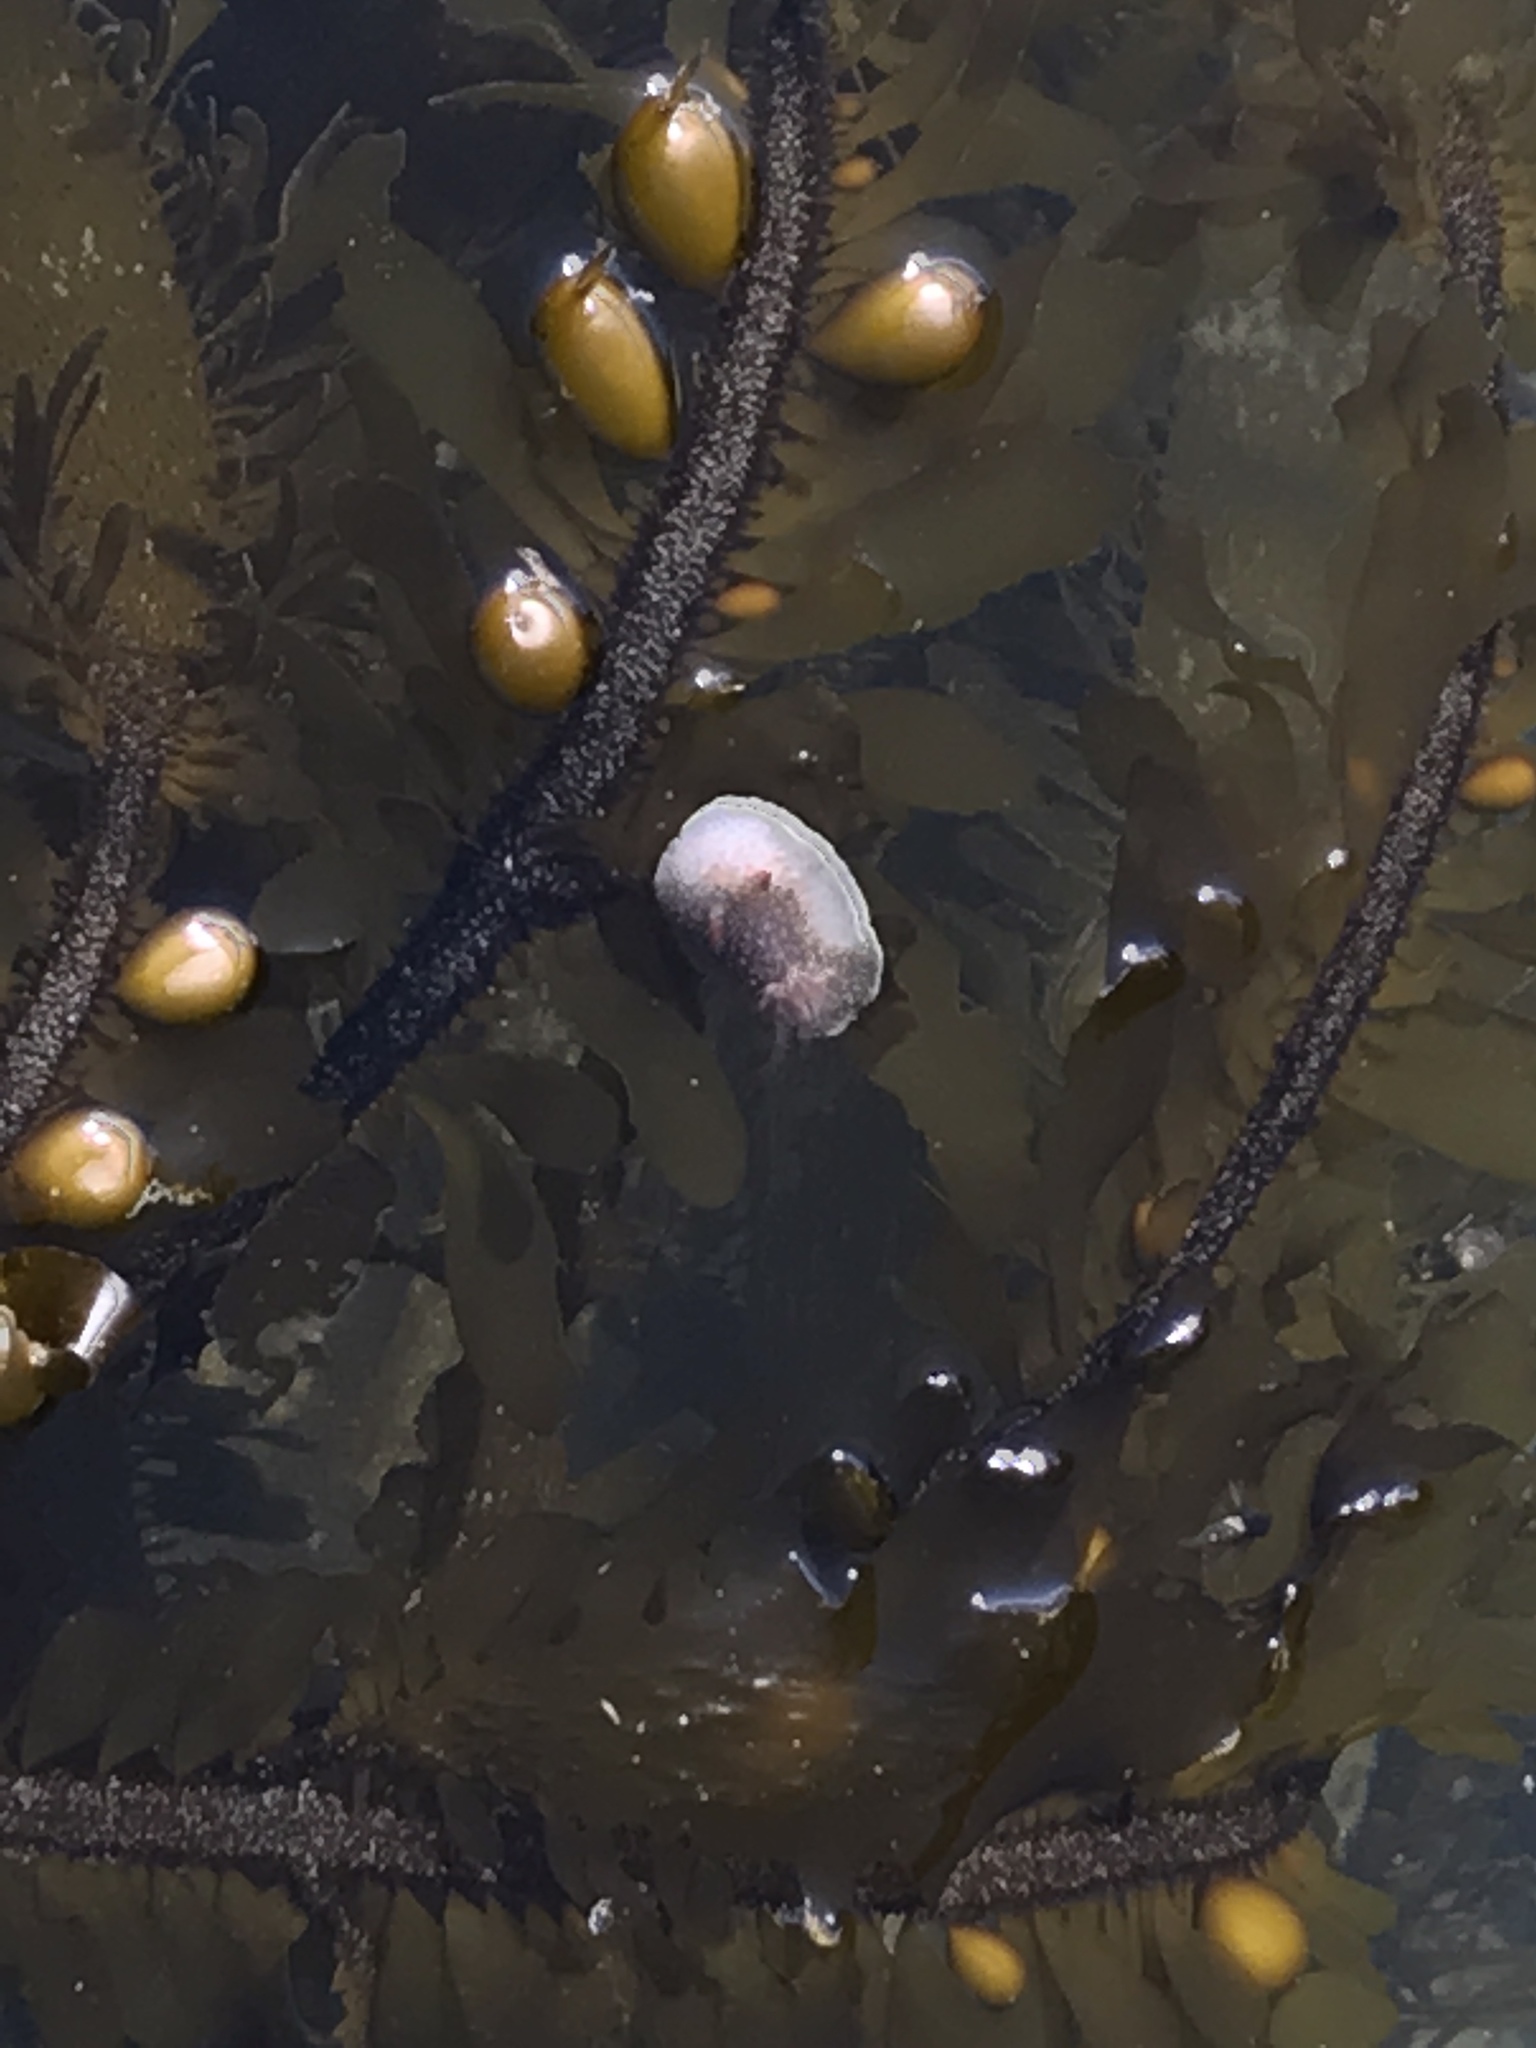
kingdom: Animalia
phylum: Mollusca
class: Gastropoda
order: Nudibranchia
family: Onchidorididae
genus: Acanthodoris
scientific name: Acanthodoris nanaimoensis
